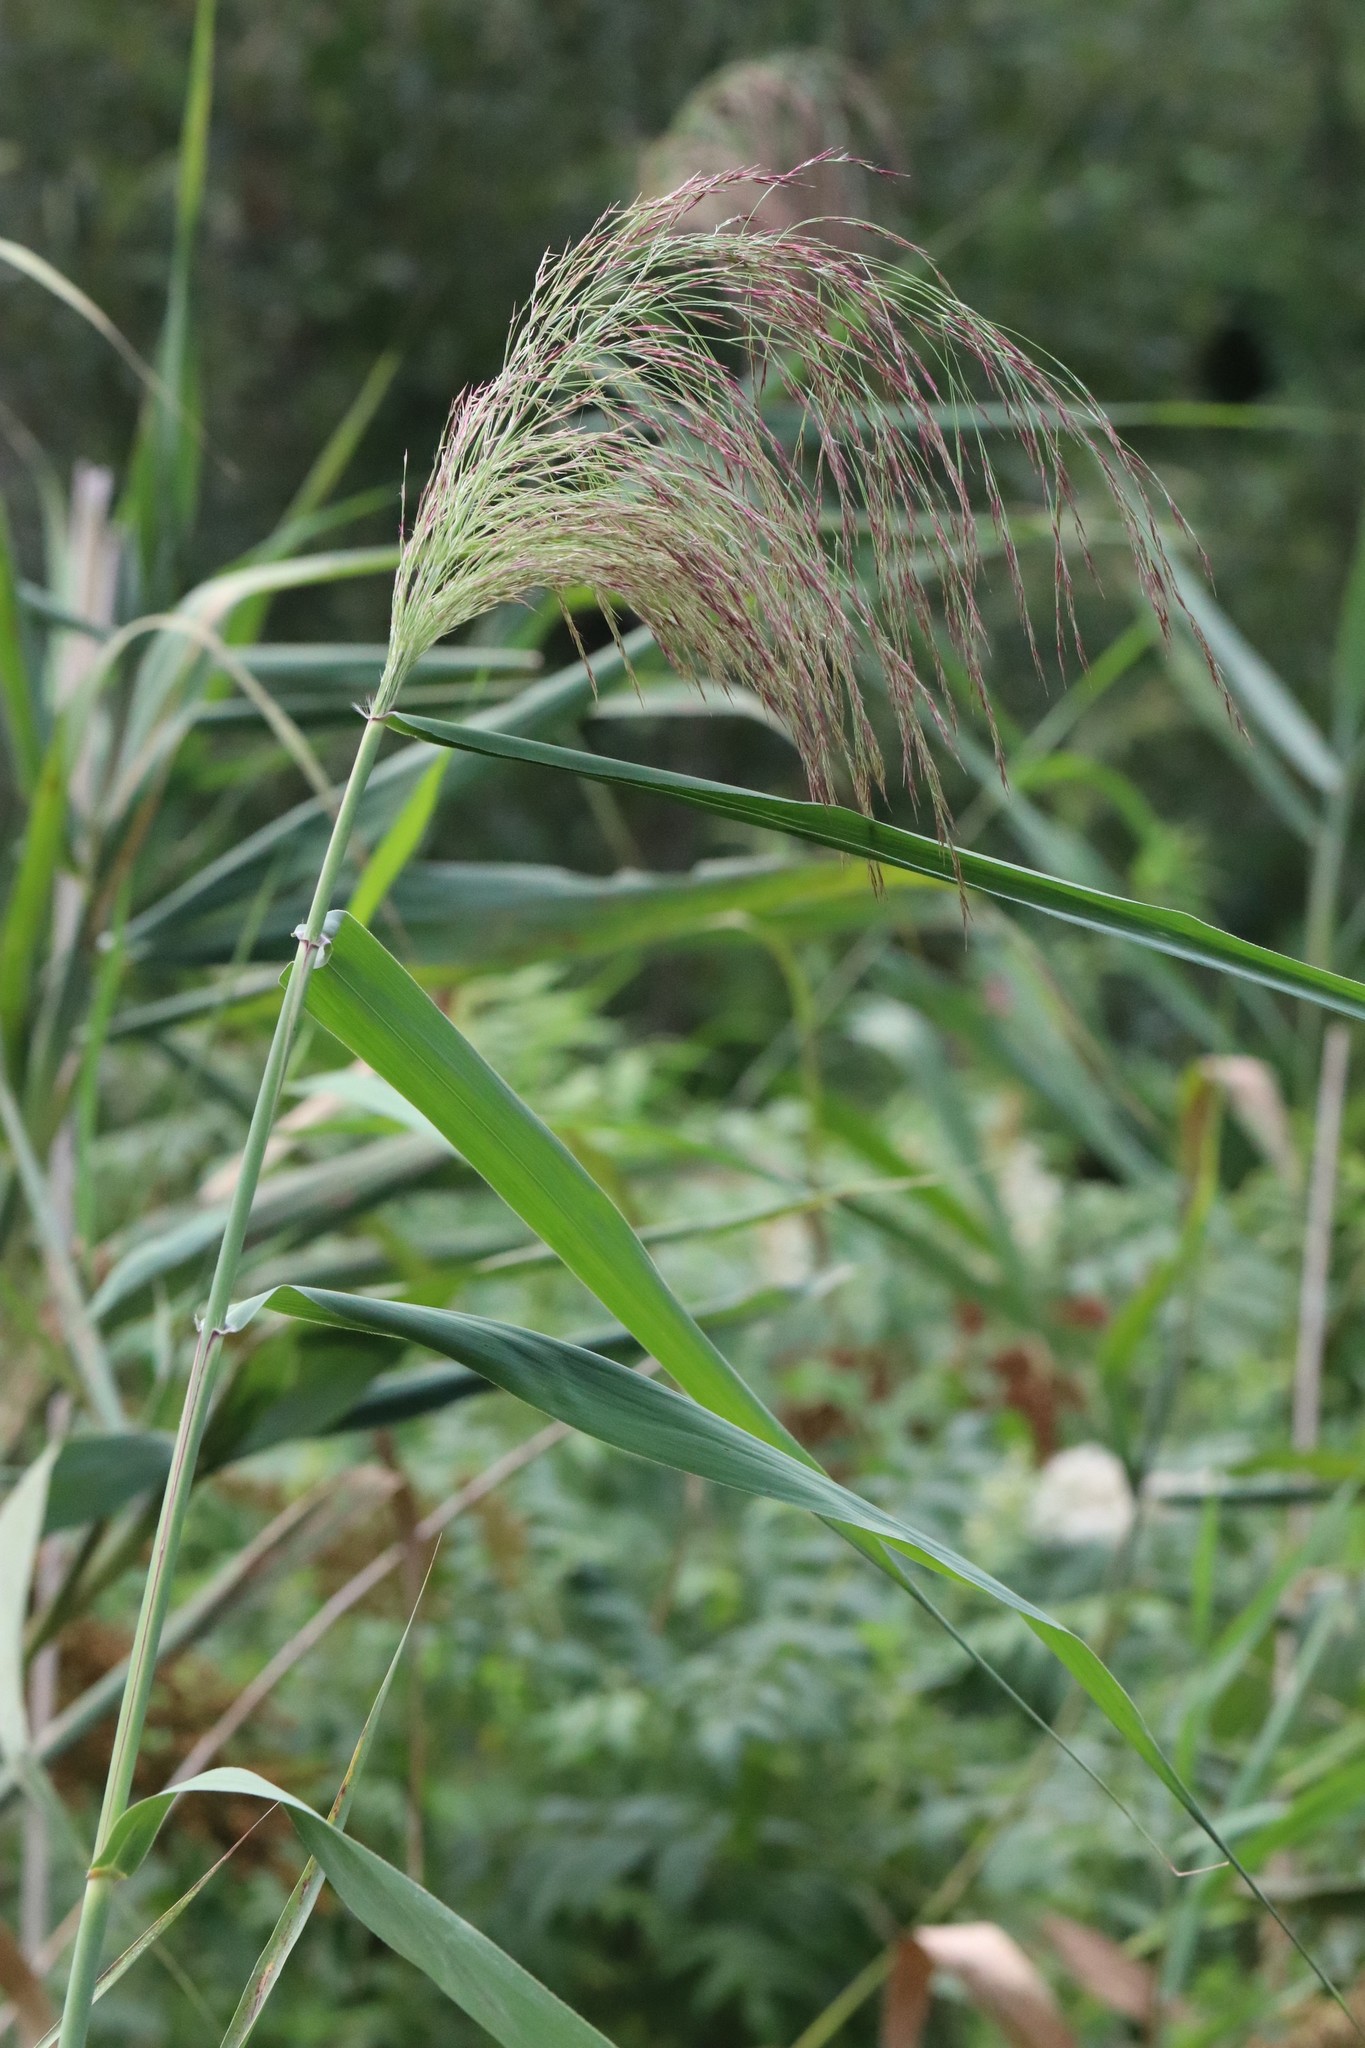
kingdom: Plantae
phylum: Tracheophyta
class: Liliopsida
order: Poales
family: Poaceae
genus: Phragmites
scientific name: Phragmites australis
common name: Common reed
